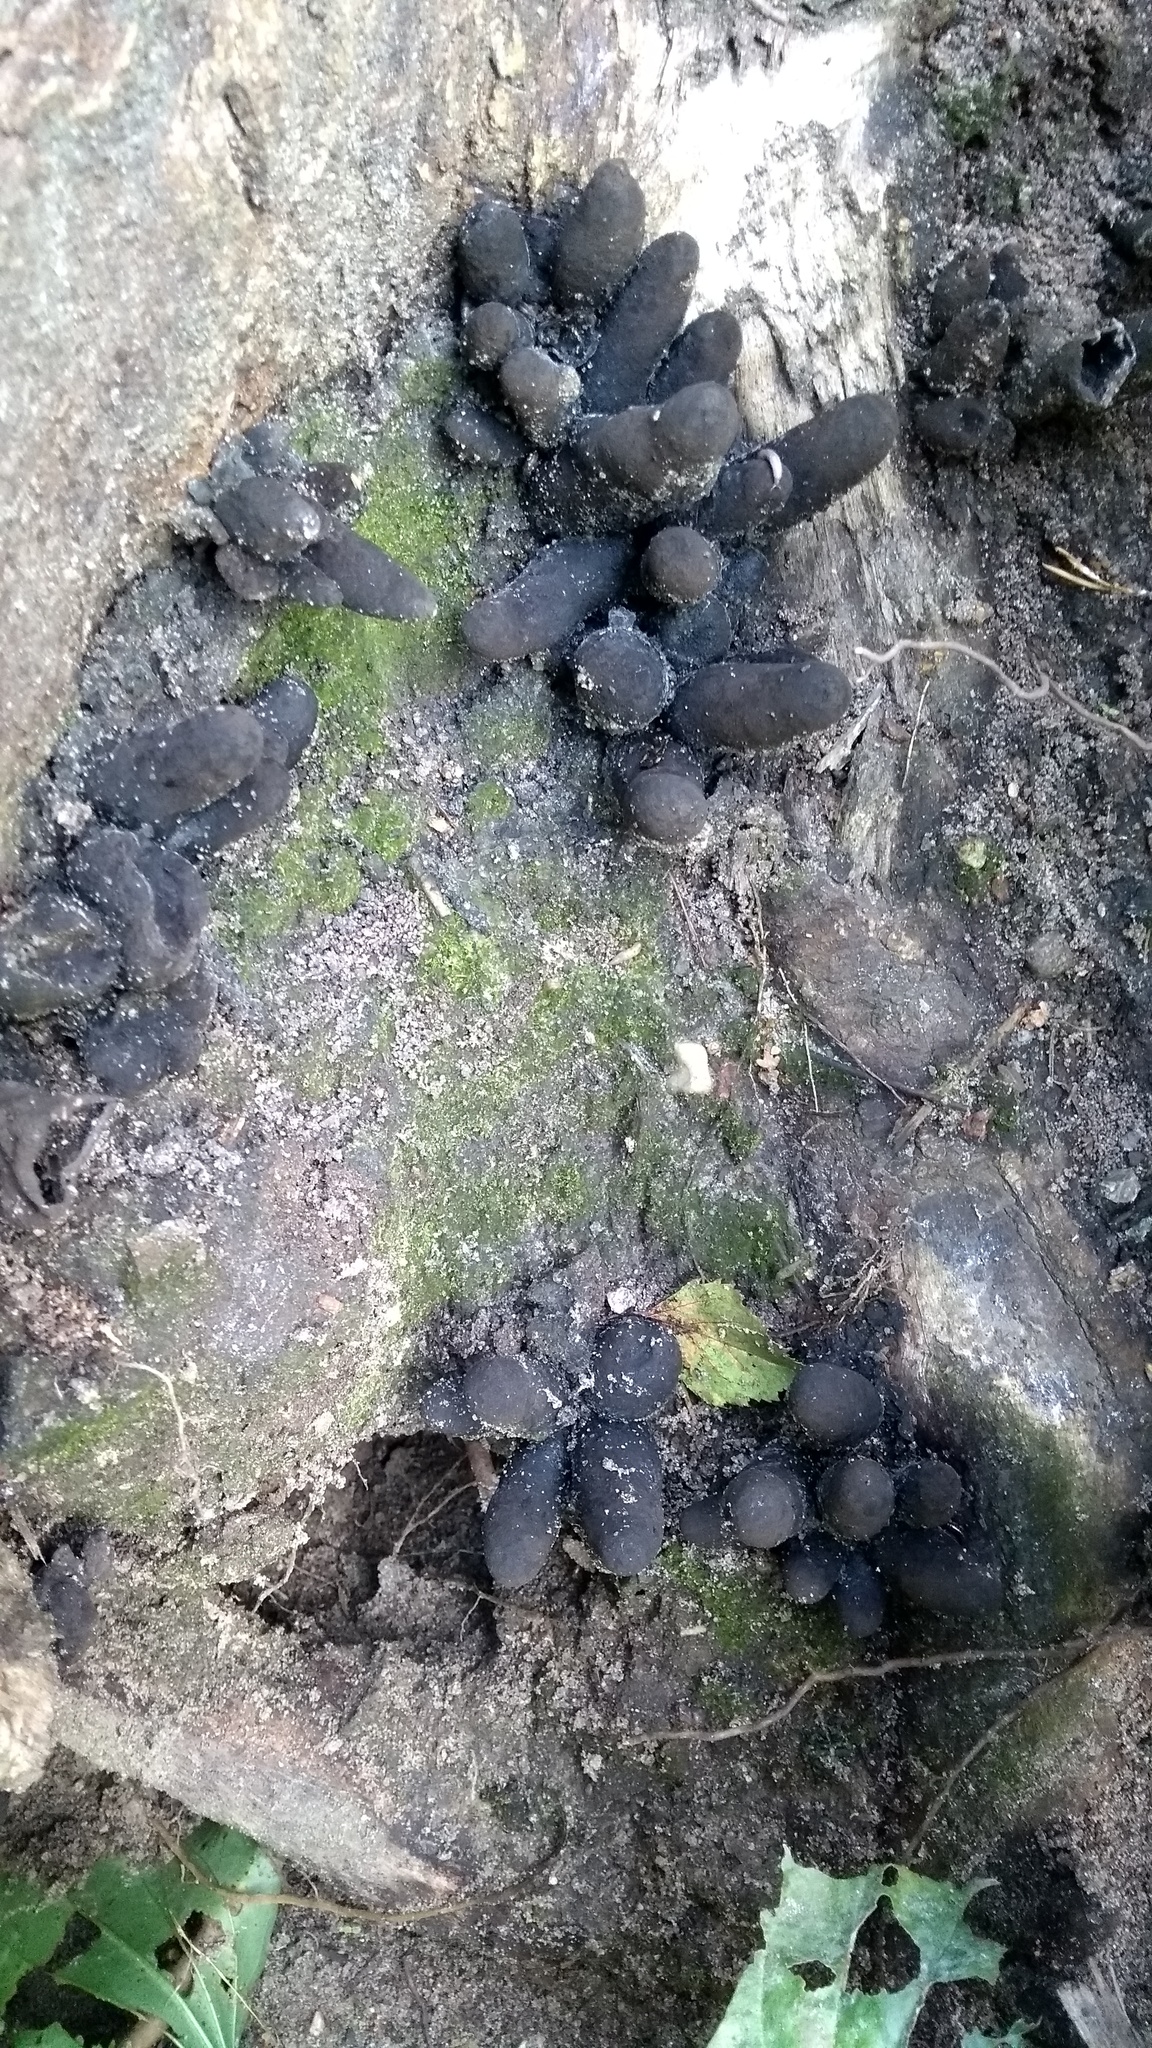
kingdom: Fungi
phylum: Ascomycota
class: Sordariomycetes
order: Xylariales
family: Xylariaceae
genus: Xylaria
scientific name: Xylaria polymorpha
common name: Dead man's fingers
